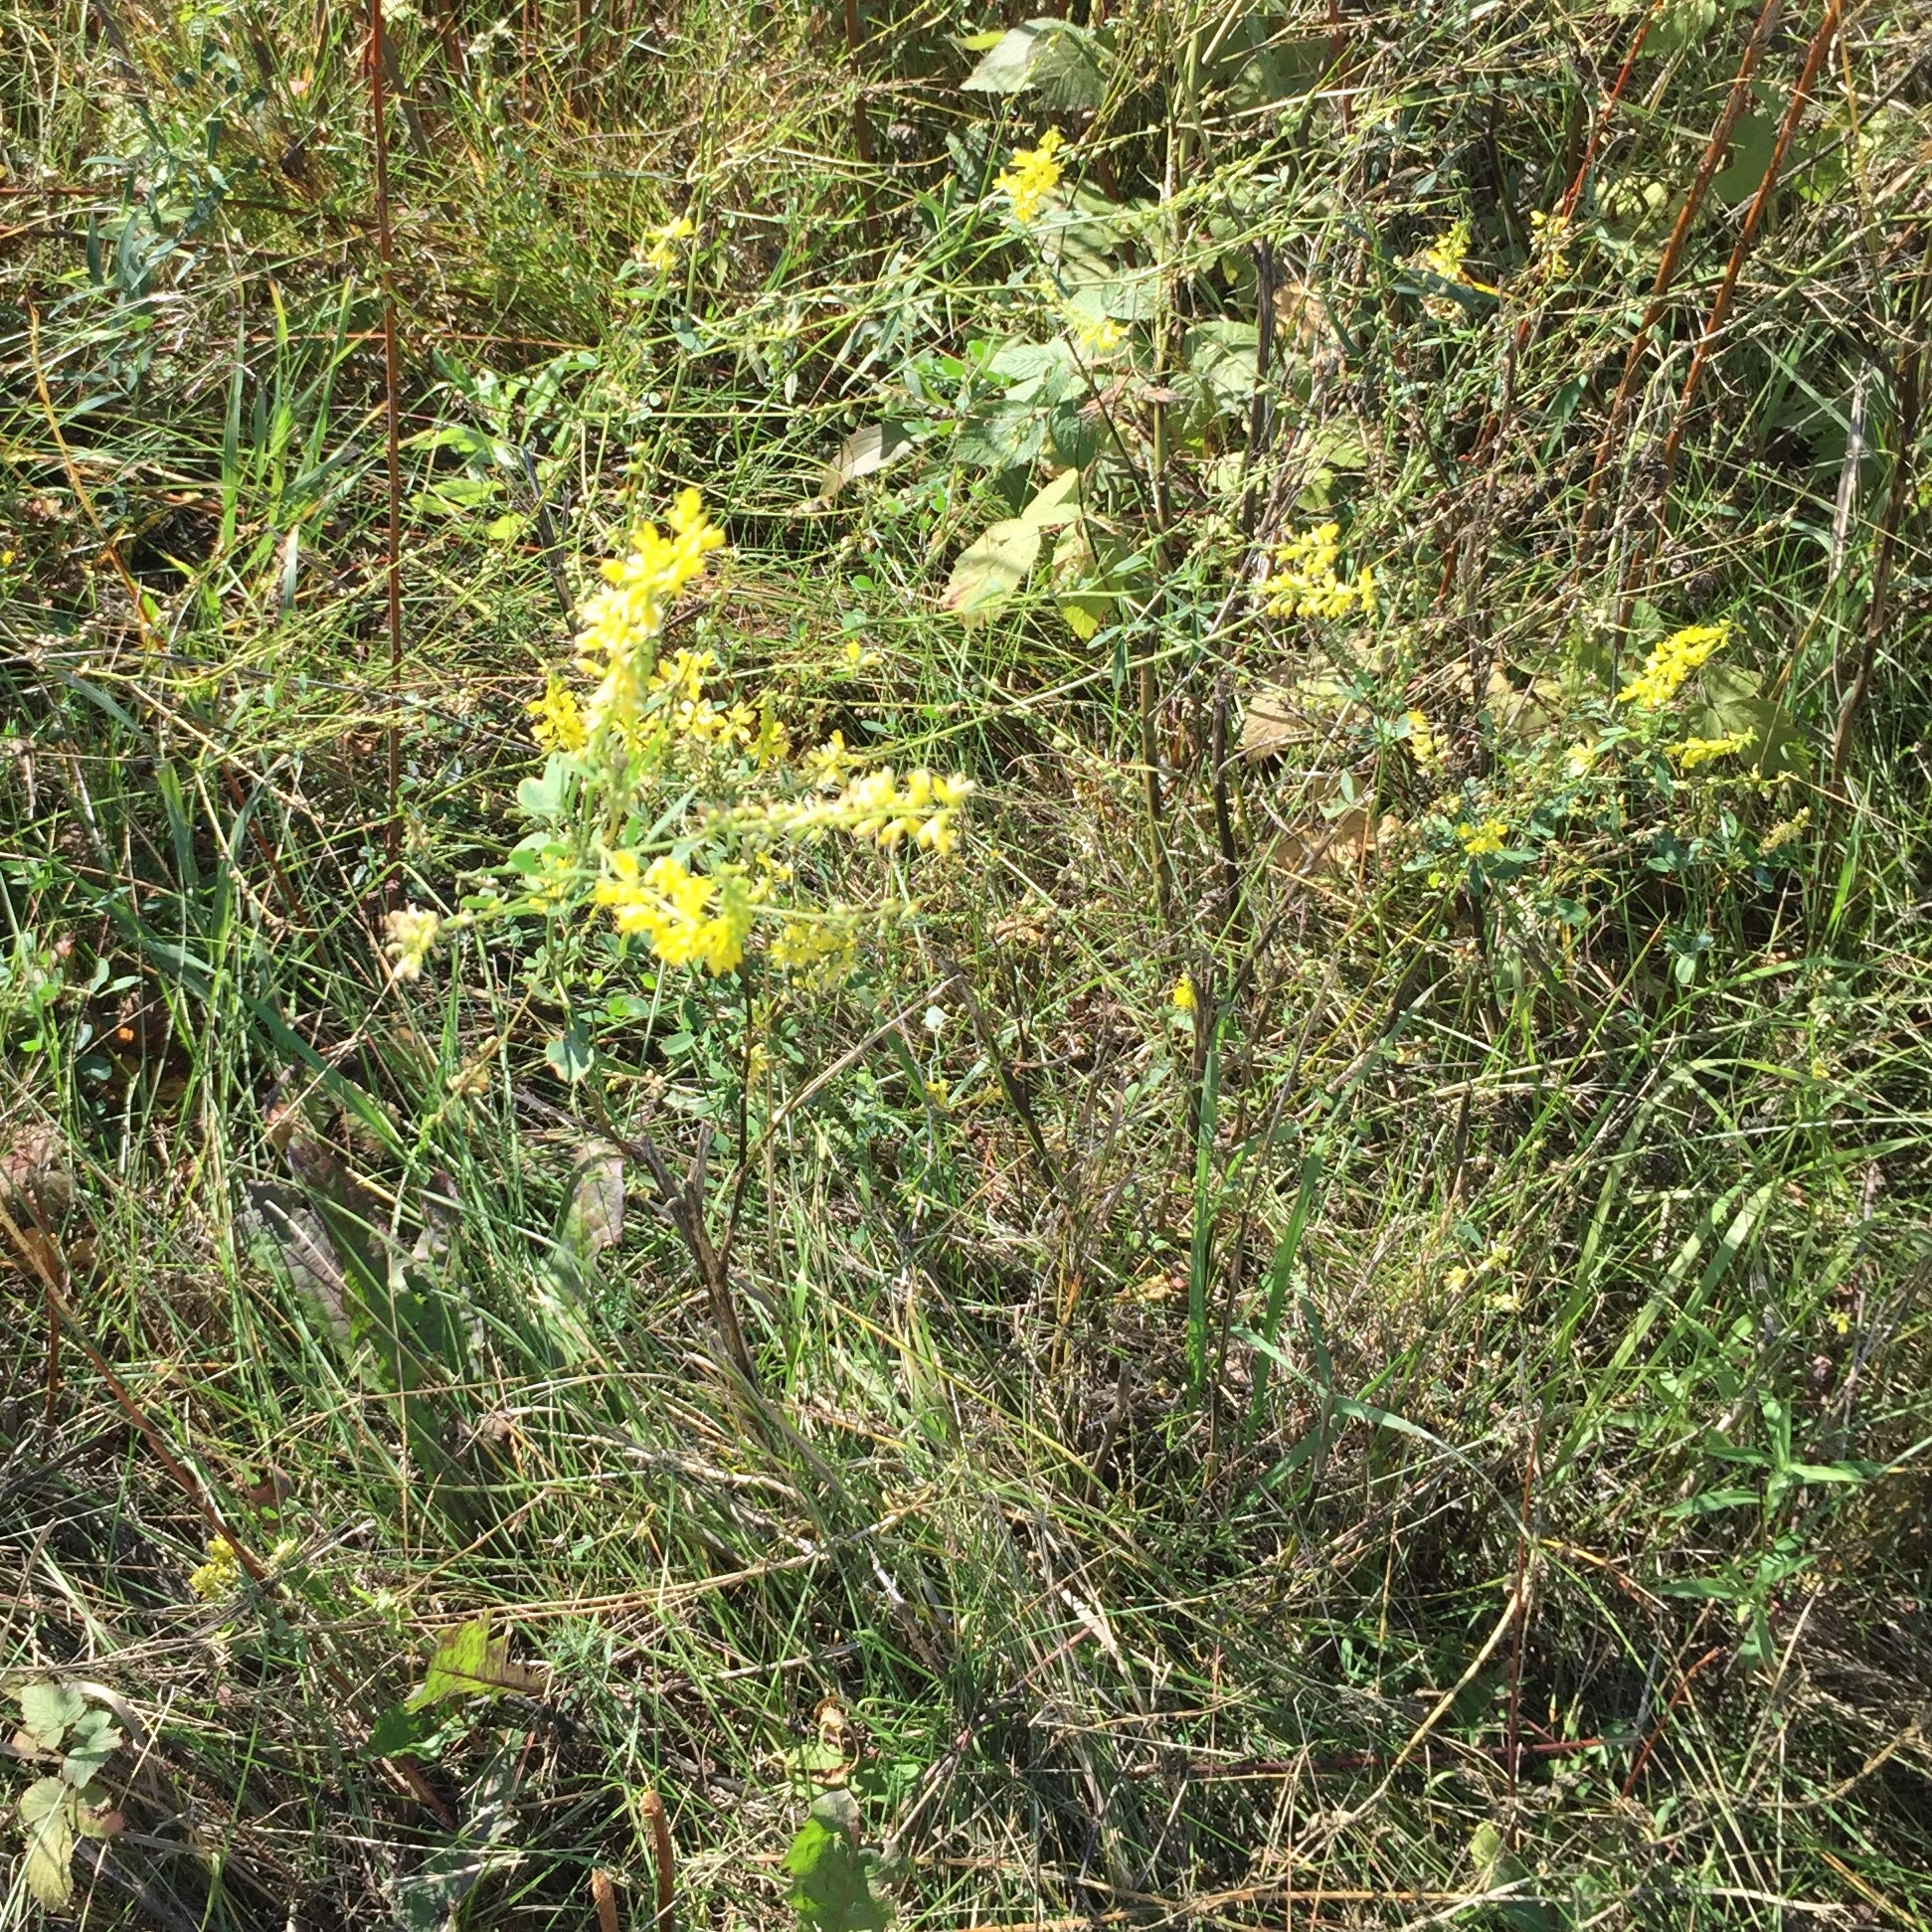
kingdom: Plantae
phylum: Tracheophyta
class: Magnoliopsida
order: Fabales
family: Fabaceae
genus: Melilotus
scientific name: Melilotus officinalis
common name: Sweetclover
